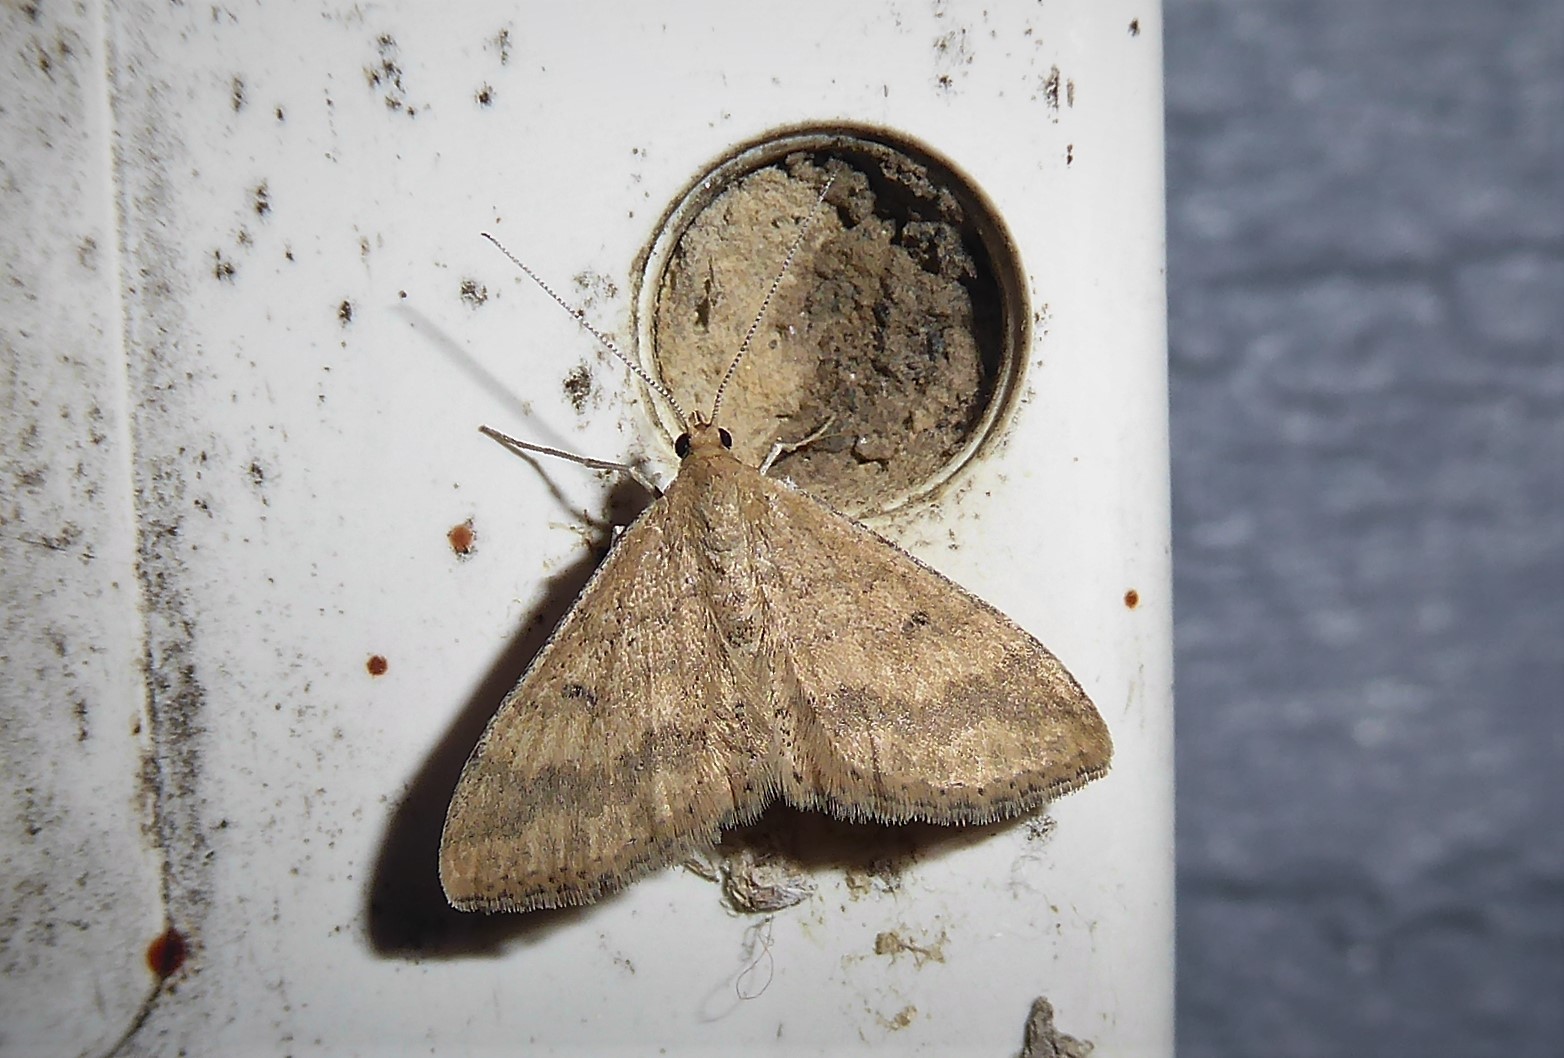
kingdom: Animalia
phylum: Arthropoda
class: Insecta
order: Lepidoptera
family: Geometridae
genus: Scopula
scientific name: Scopula rubraria
